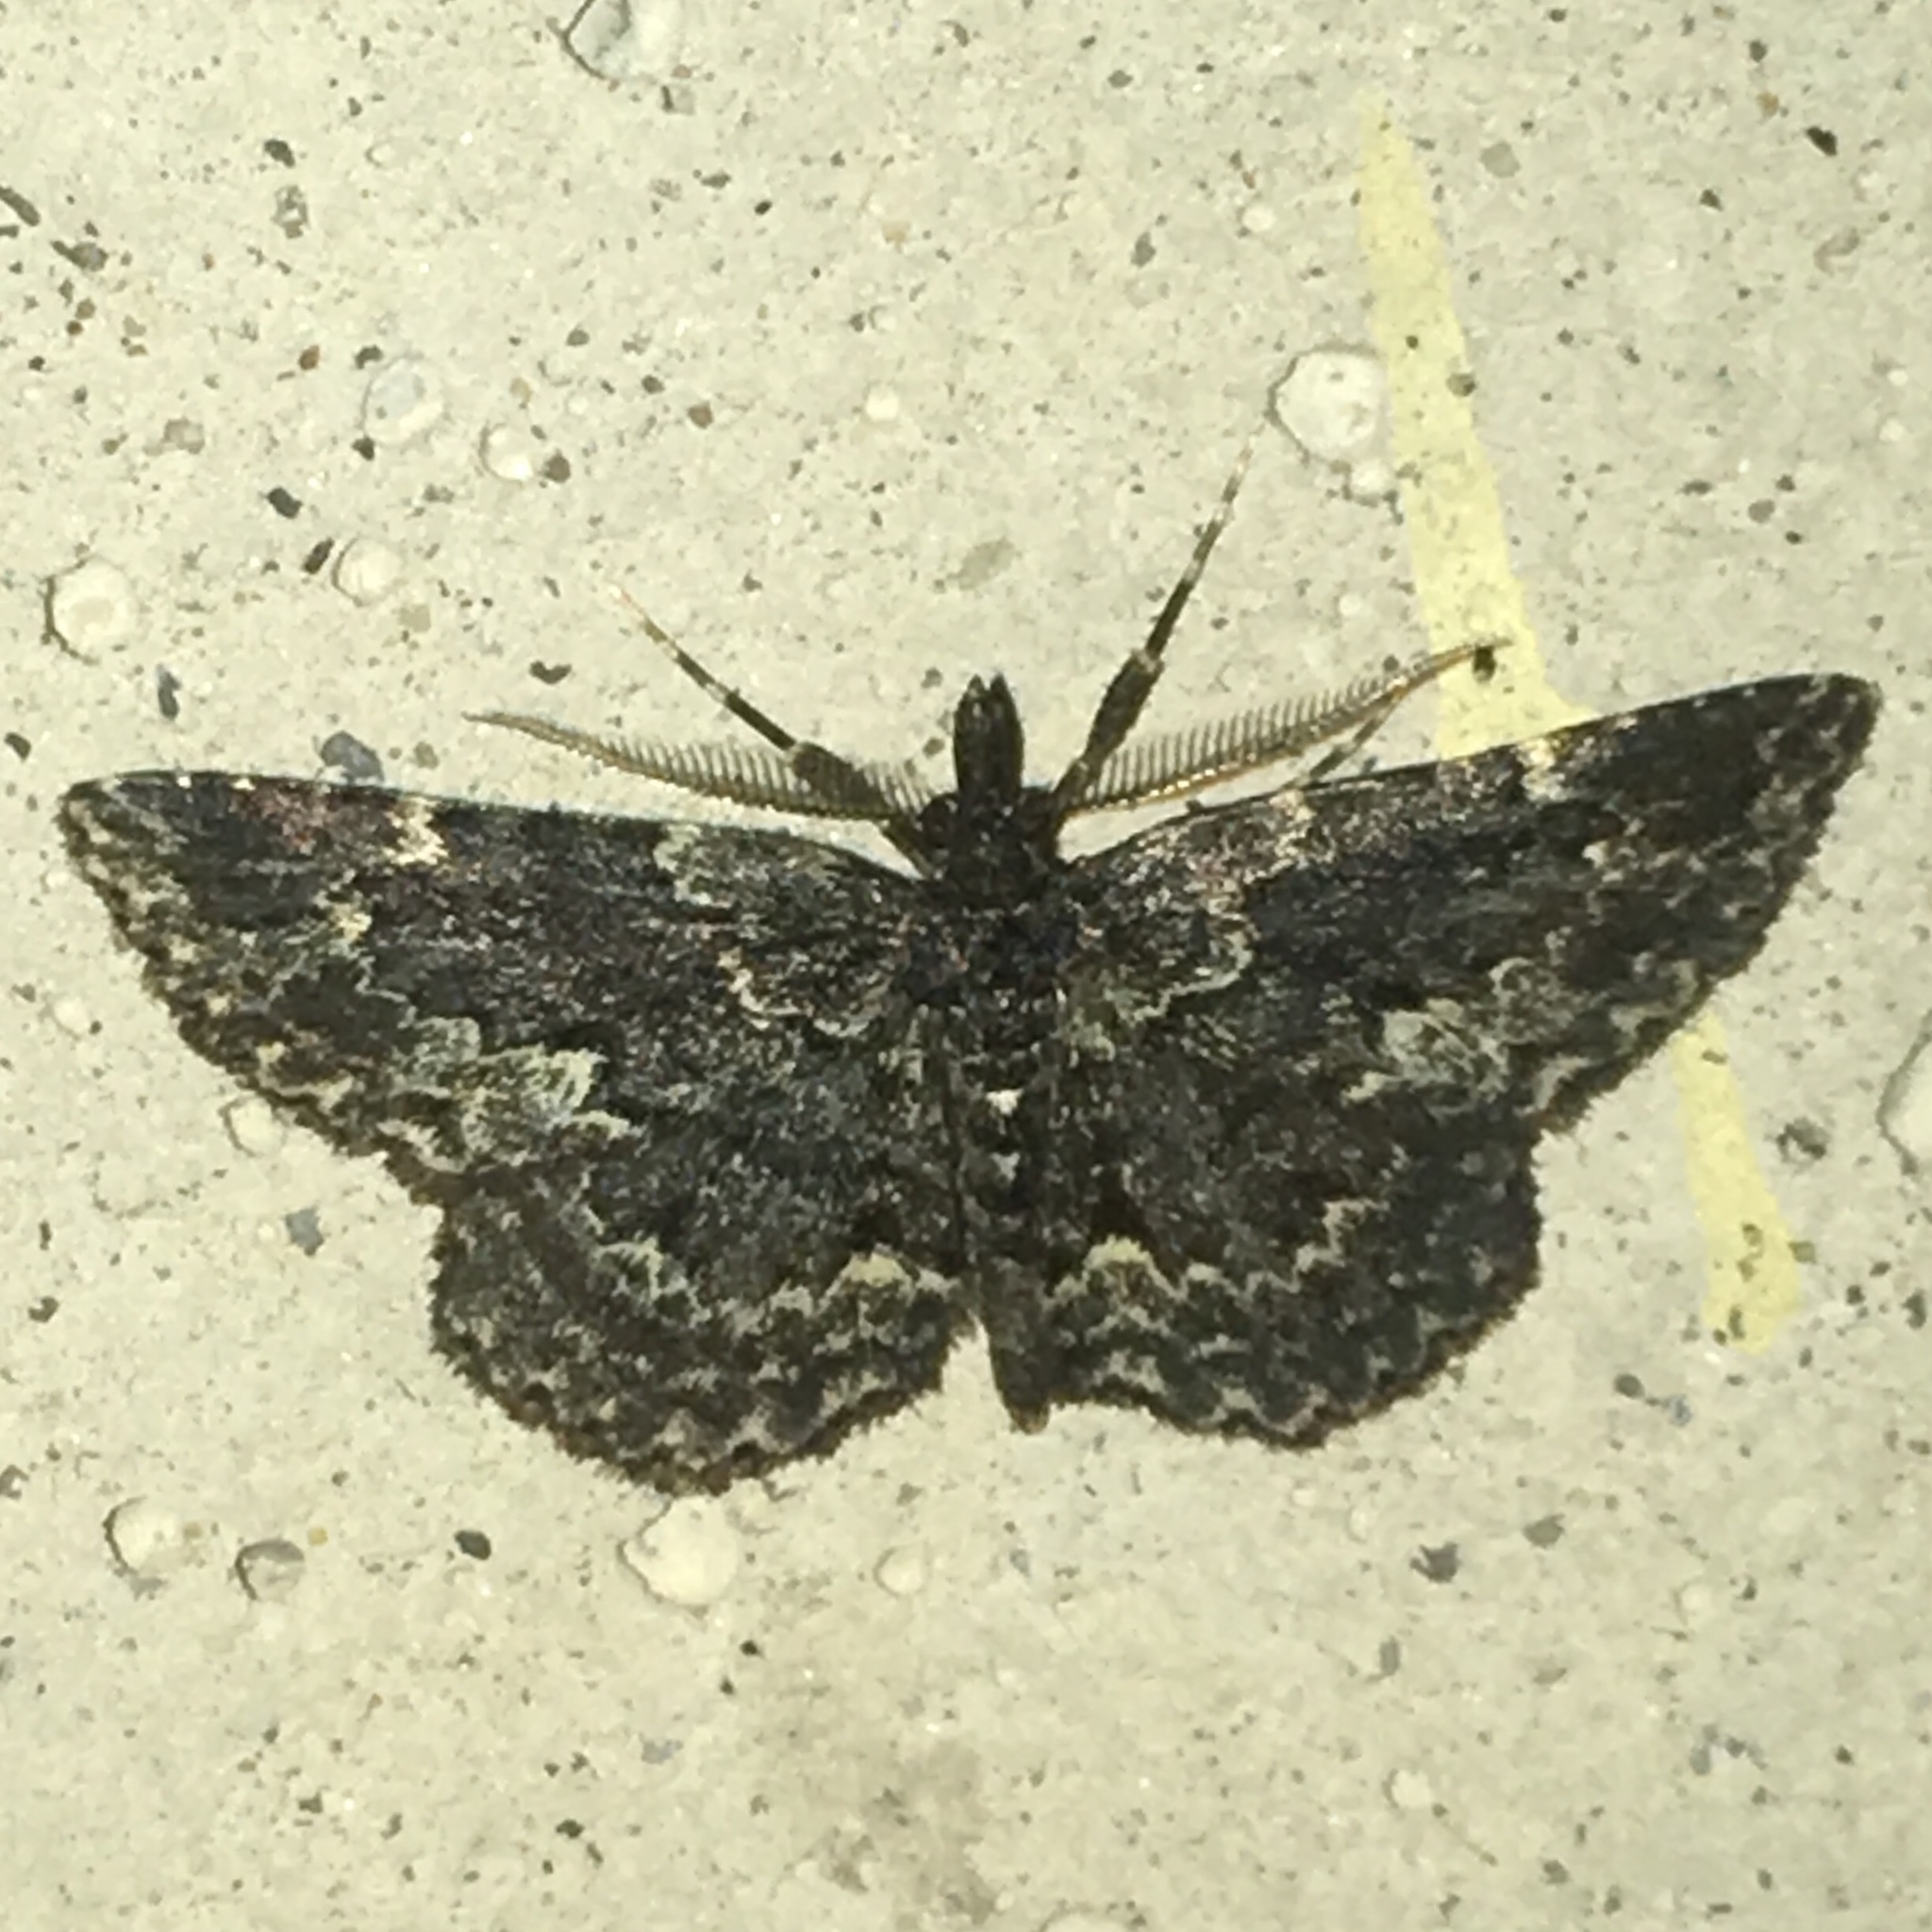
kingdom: Animalia
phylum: Arthropoda
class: Insecta
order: Lepidoptera
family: Erebidae
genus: Parascotia
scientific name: Parascotia fuliginaria
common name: Waved black
